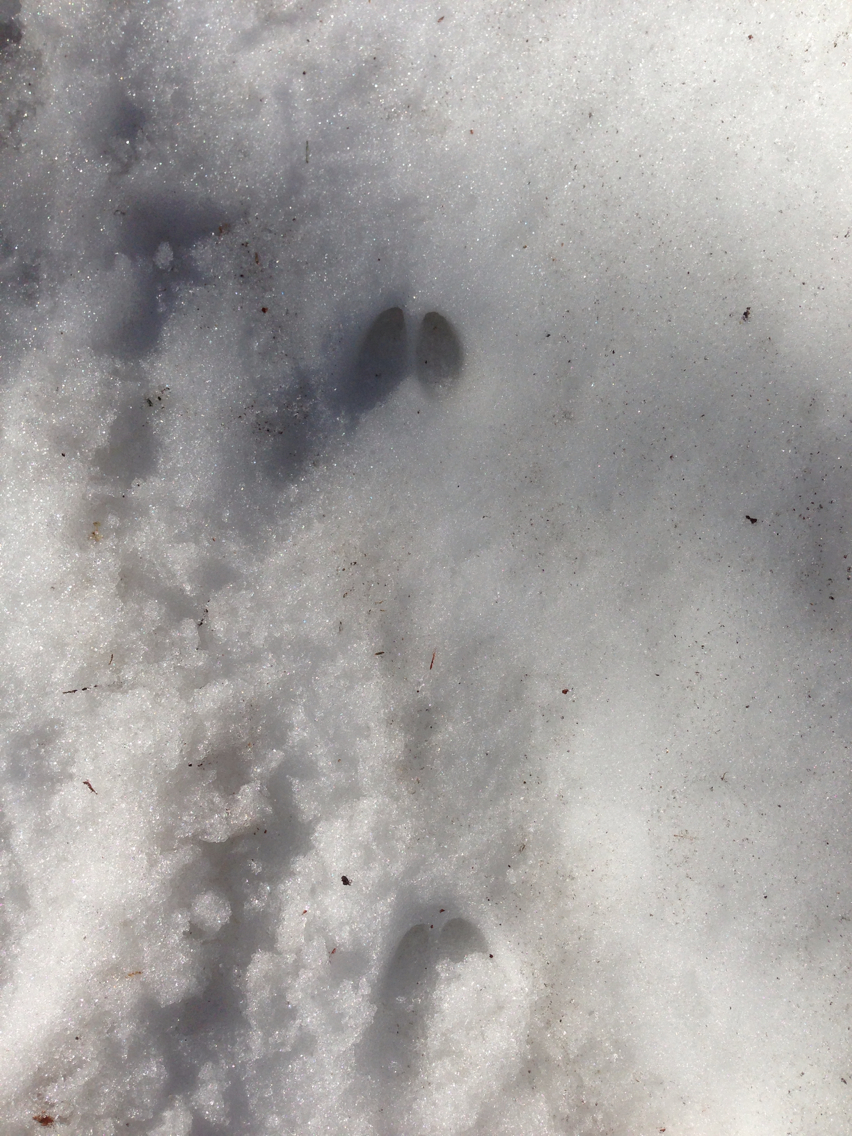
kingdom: Animalia
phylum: Chordata
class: Mammalia
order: Artiodactyla
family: Cervidae
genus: Odocoileus
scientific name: Odocoileus virginianus
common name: White-tailed deer
